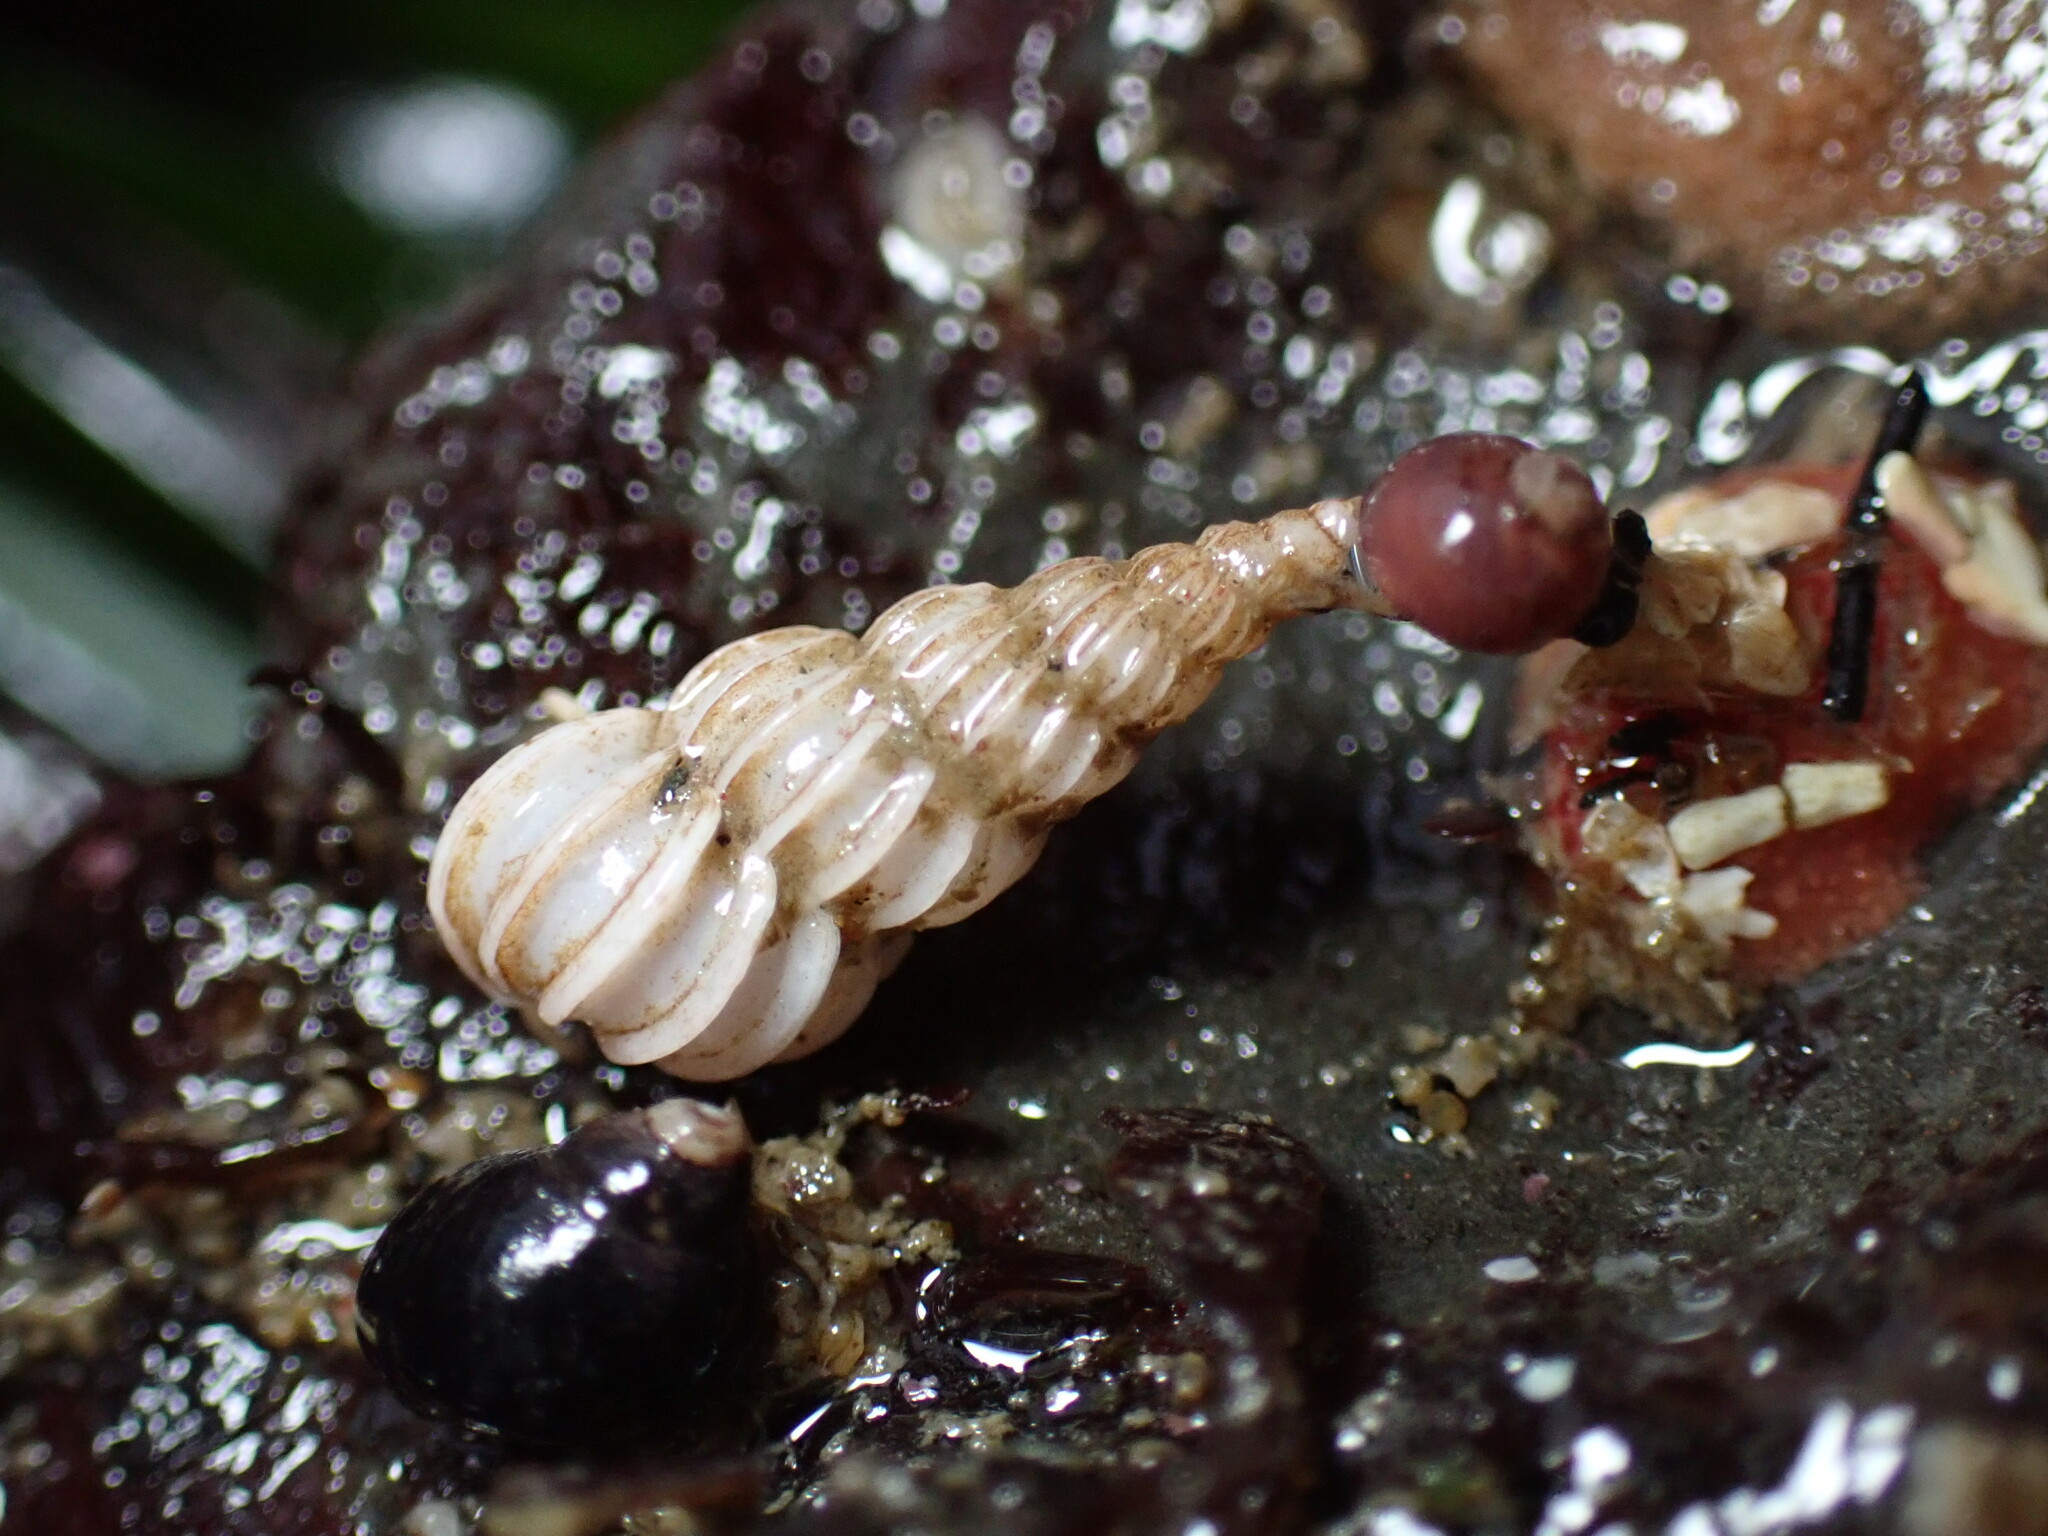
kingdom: Animalia
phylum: Mollusca
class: Gastropoda
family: Epitoniidae
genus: Epitonium
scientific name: Epitonium tinctum
